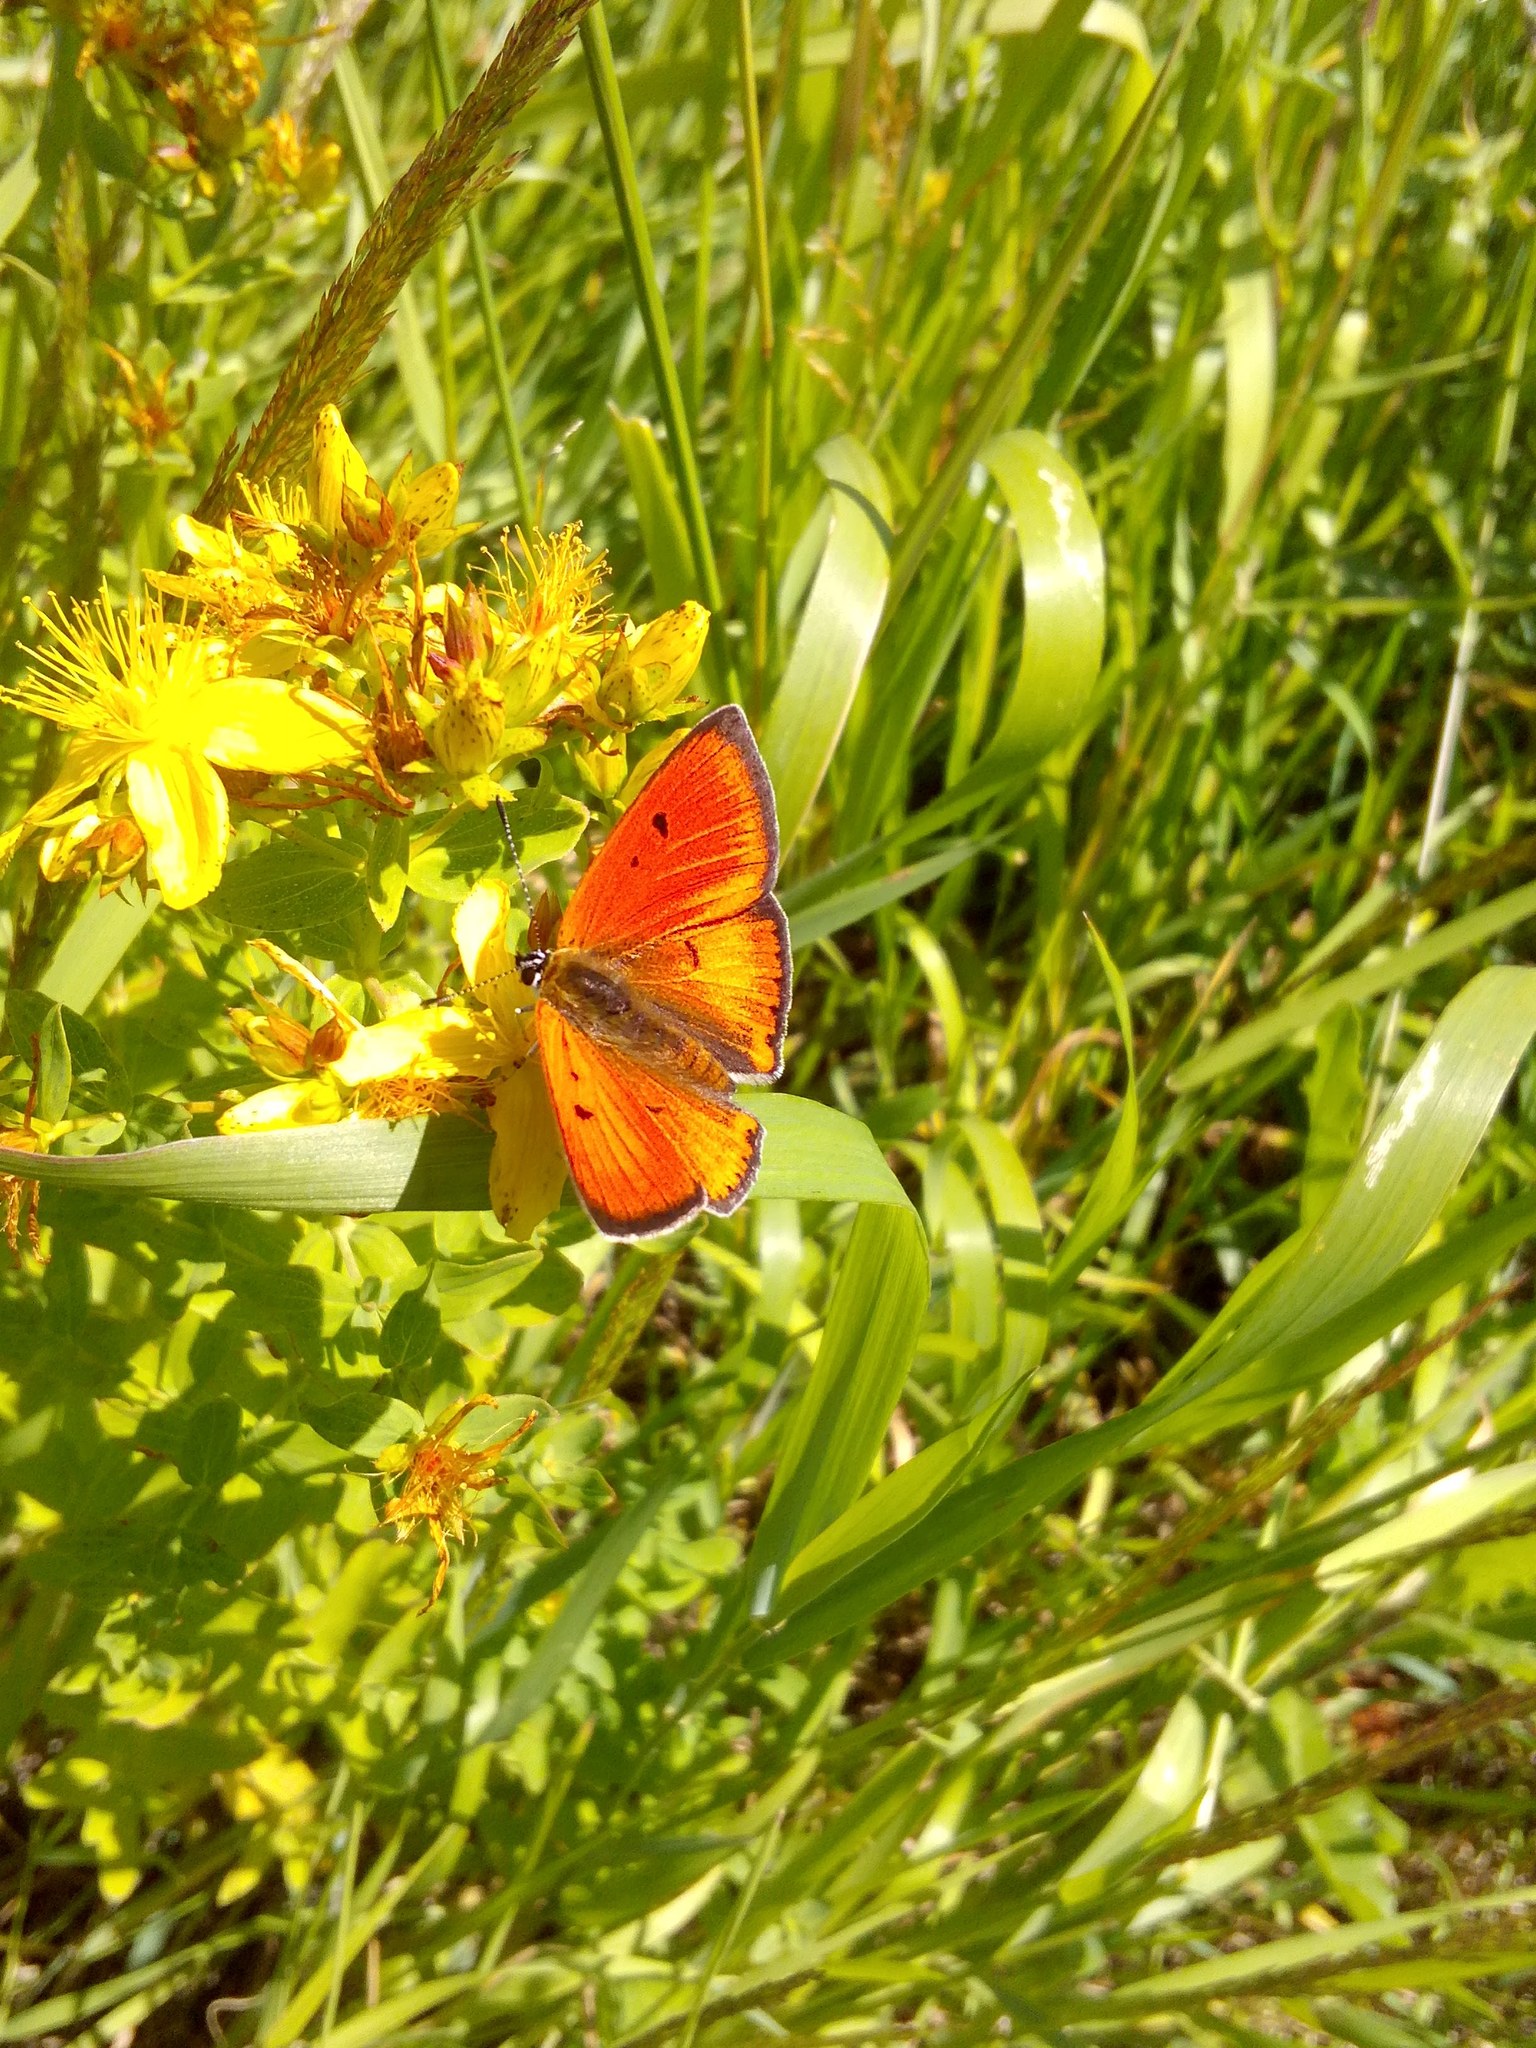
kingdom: Plantae
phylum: Tracheophyta
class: Magnoliopsida
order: Malpighiales
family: Hypericaceae
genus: Hypericum
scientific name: Hypericum perforatum
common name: Common st. johnswort
